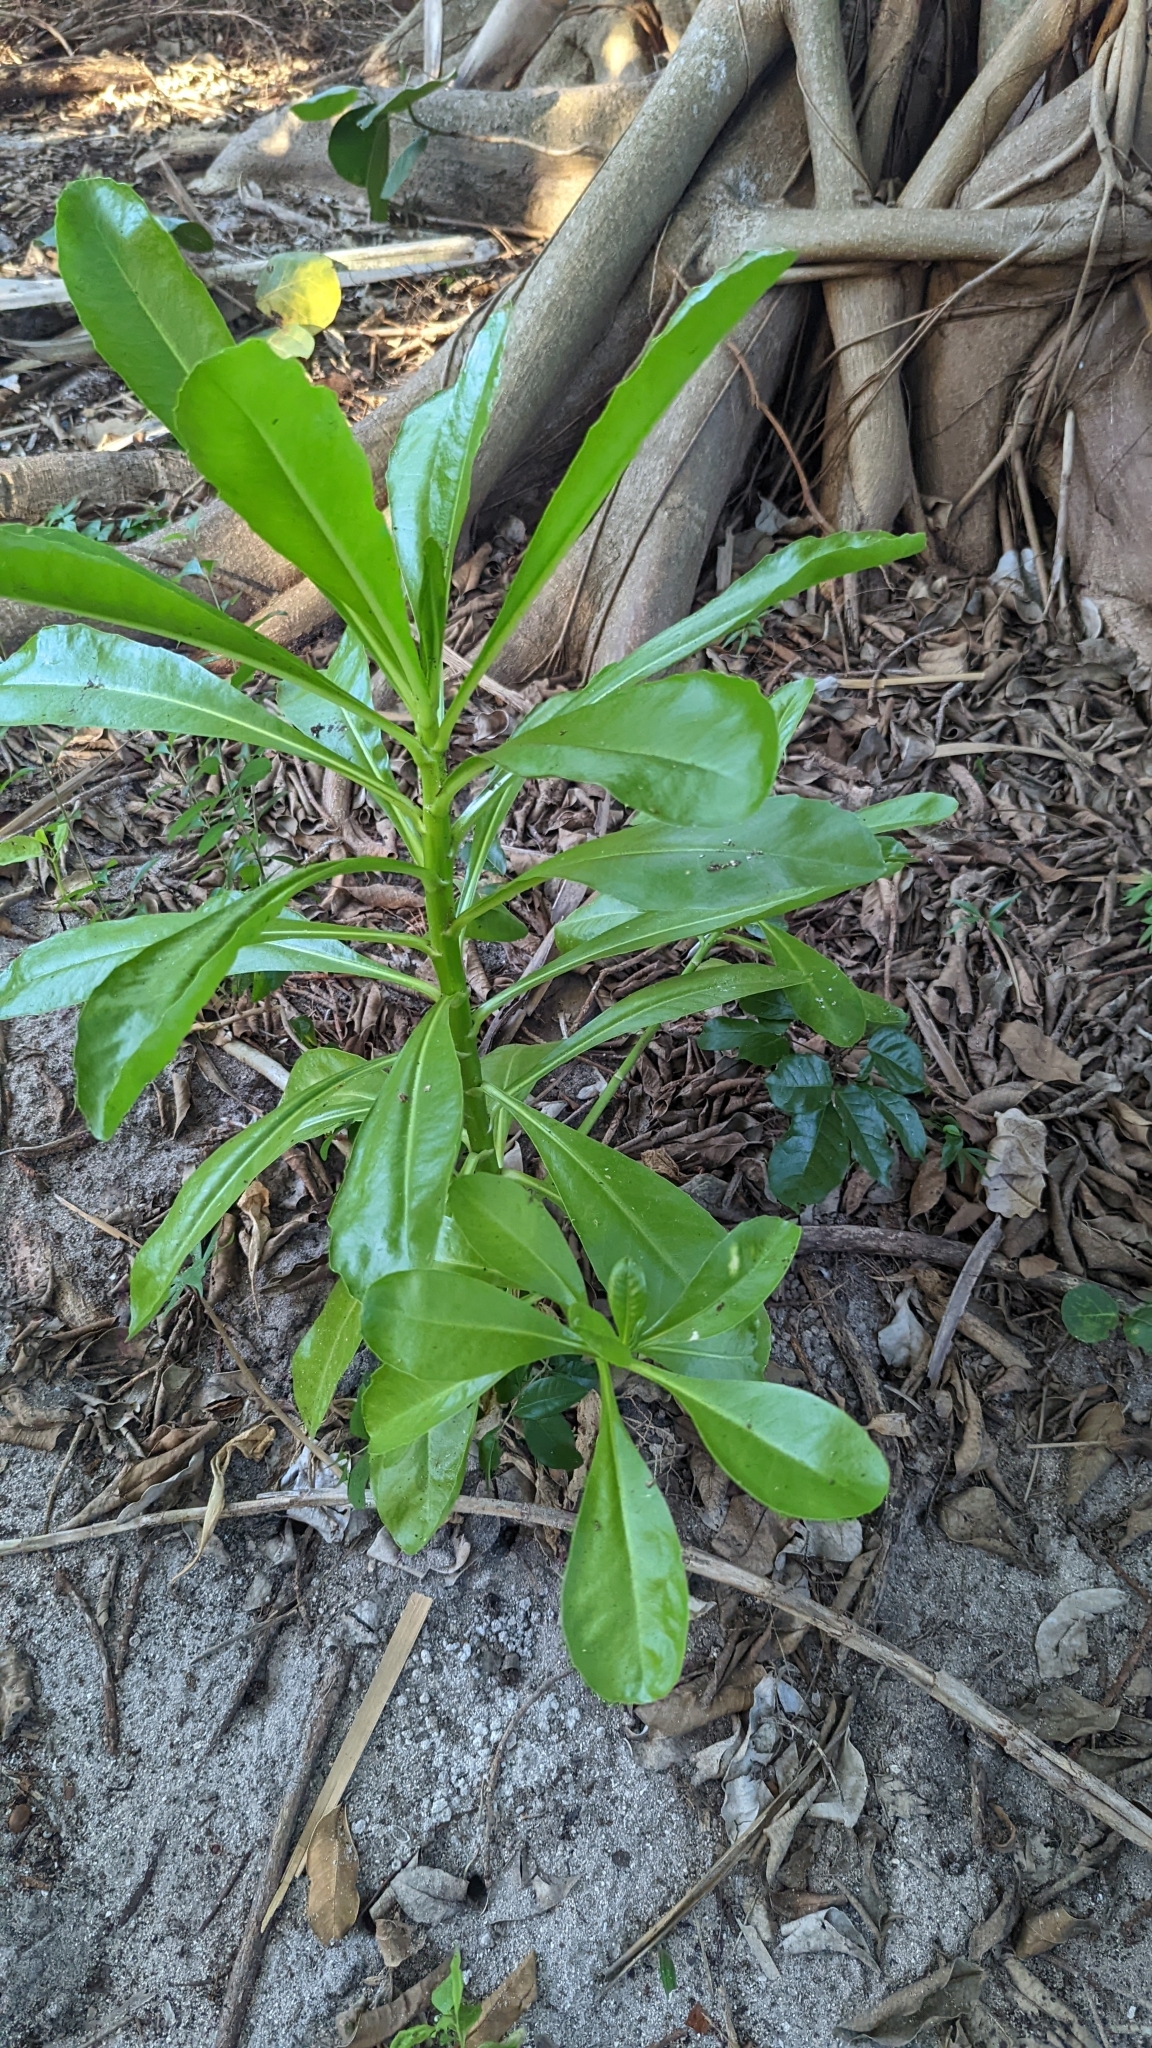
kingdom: Plantae
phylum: Tracheophyta
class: Magnoliopsida
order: Asterales
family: Goodeniaceae
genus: Scaevola
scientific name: Scaevola taccada
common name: Sea lettucetree
